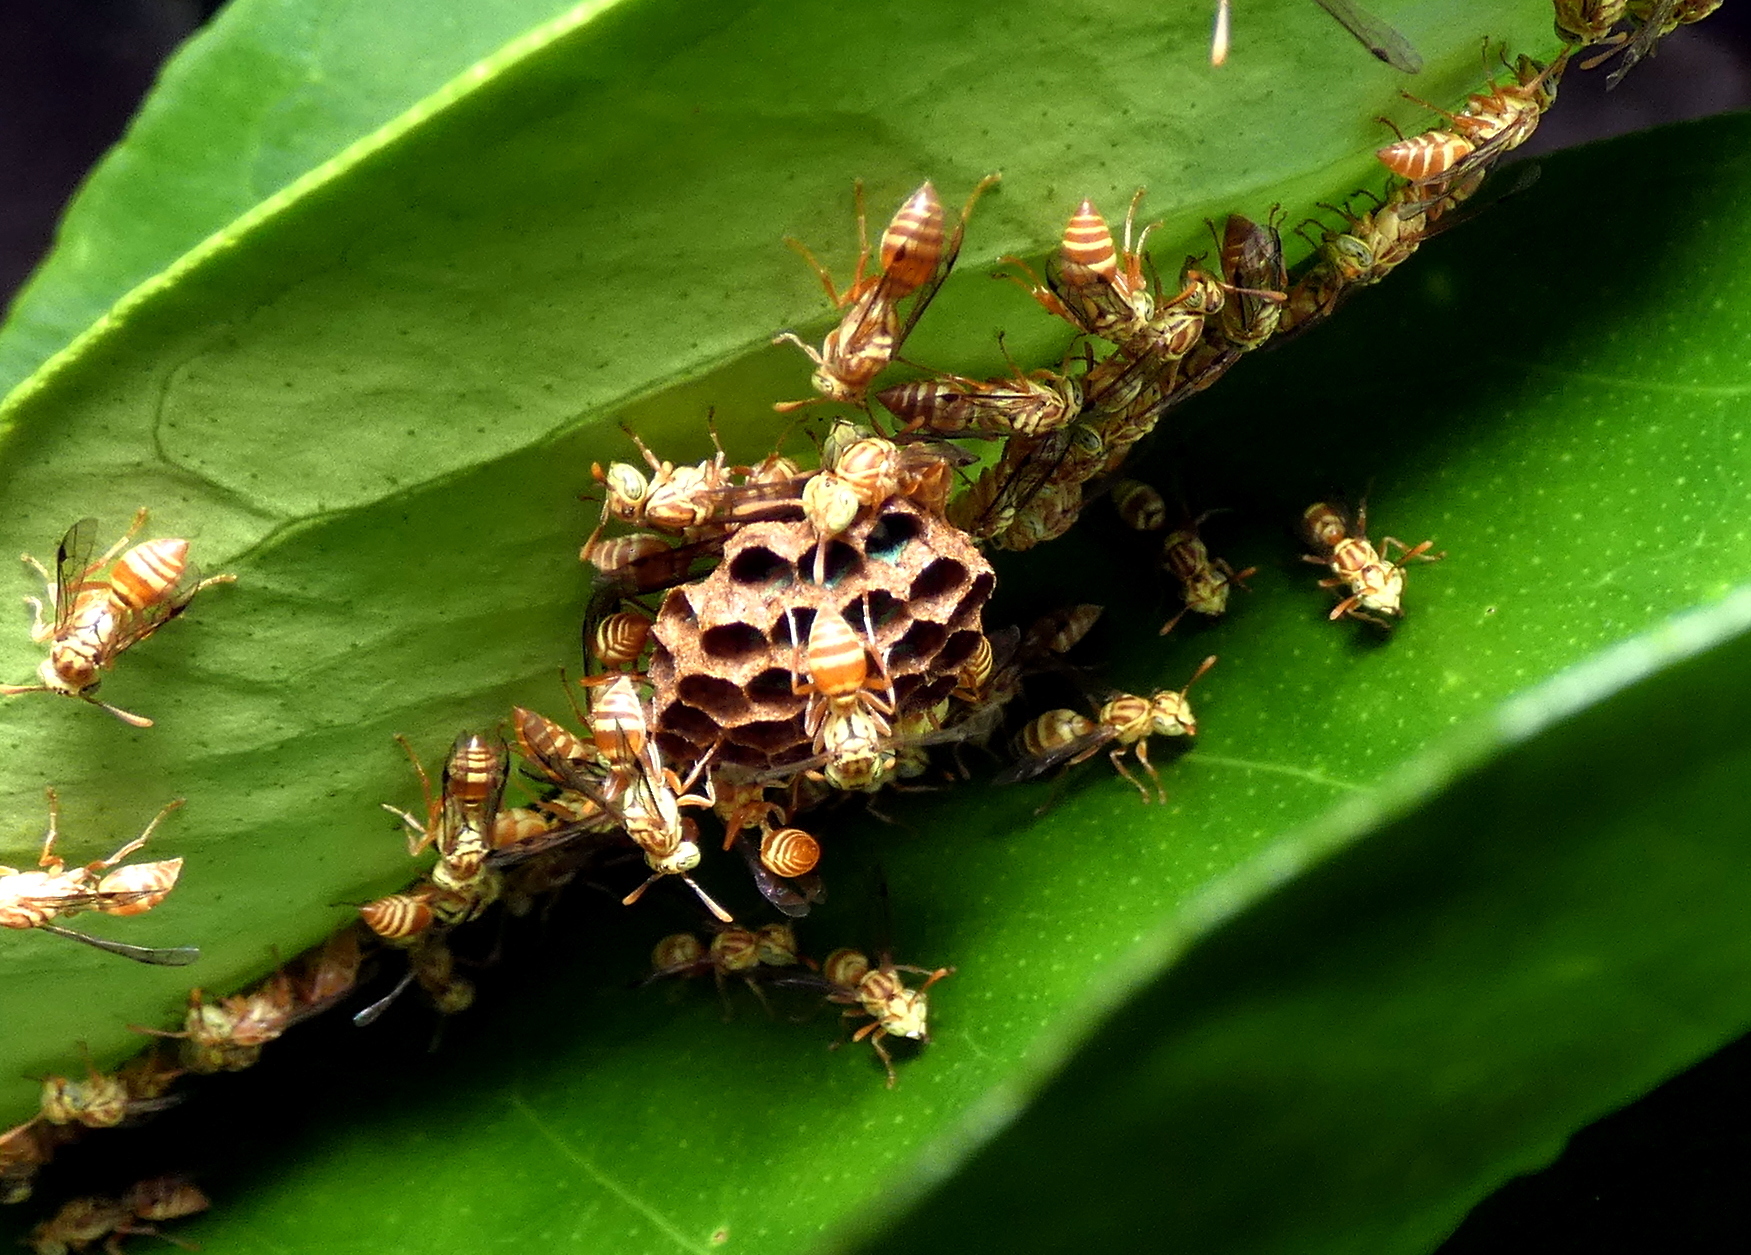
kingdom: Animalia
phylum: Arthropoda
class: Insecta
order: Hymenoptera
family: Vespidae
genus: Protopolybia
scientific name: Protopolybia potiguara
